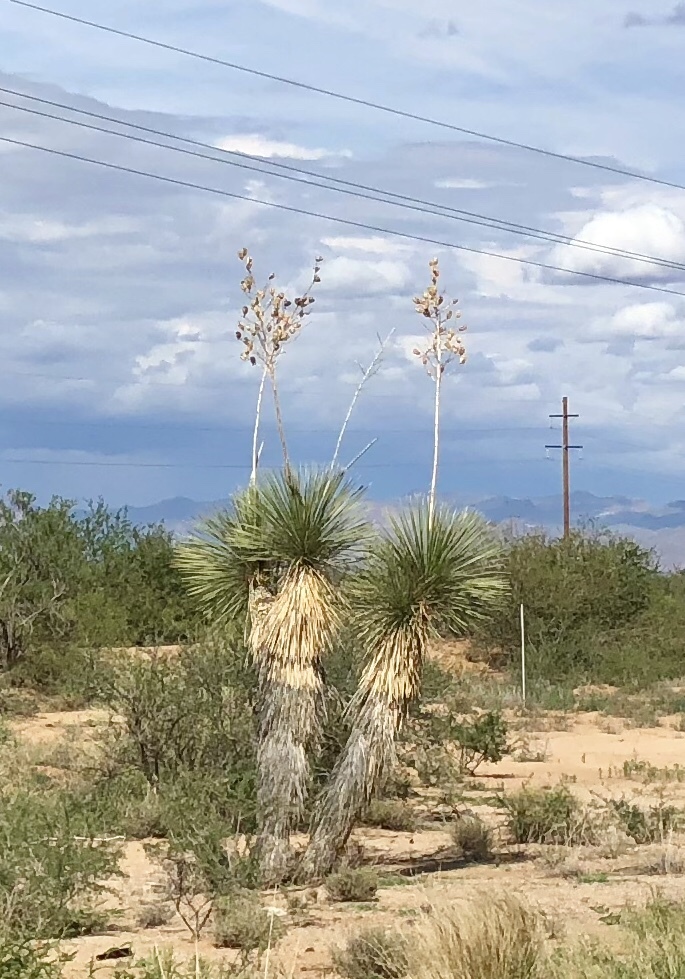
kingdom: Plantae
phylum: Tracheophyta
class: Liliopsida
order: Asparagales
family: Asparagaceae
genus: Yucca
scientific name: Yucca elata
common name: Palmella
